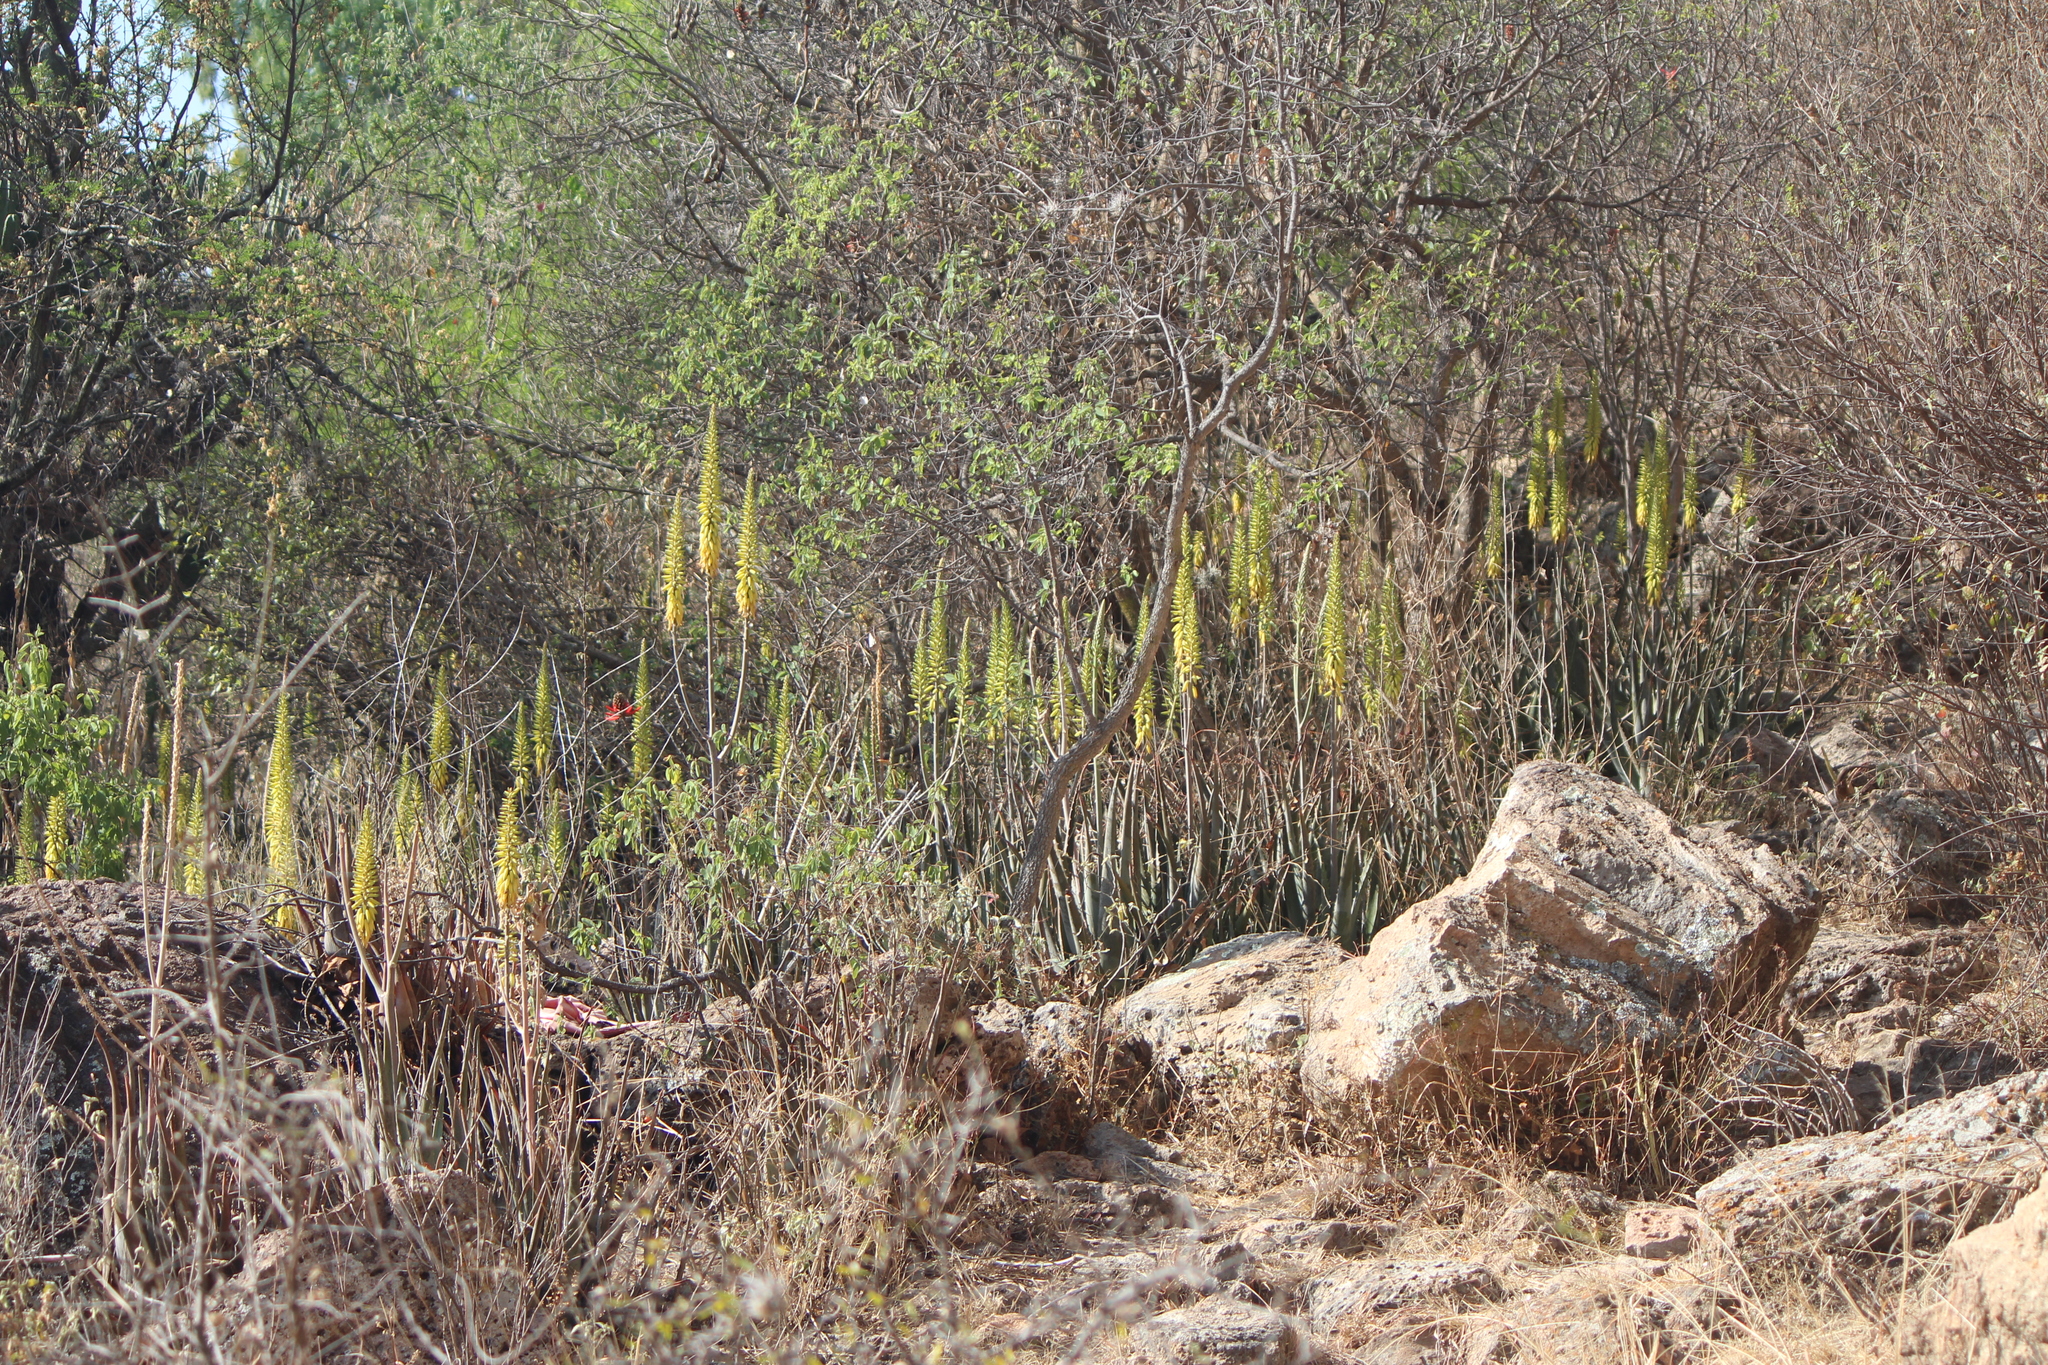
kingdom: Plantae
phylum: Tracheophyta
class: Liliopsida
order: Asparagales
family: Asphodelaceae
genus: Aloe
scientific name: Aloe vera
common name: Barbados aloe
